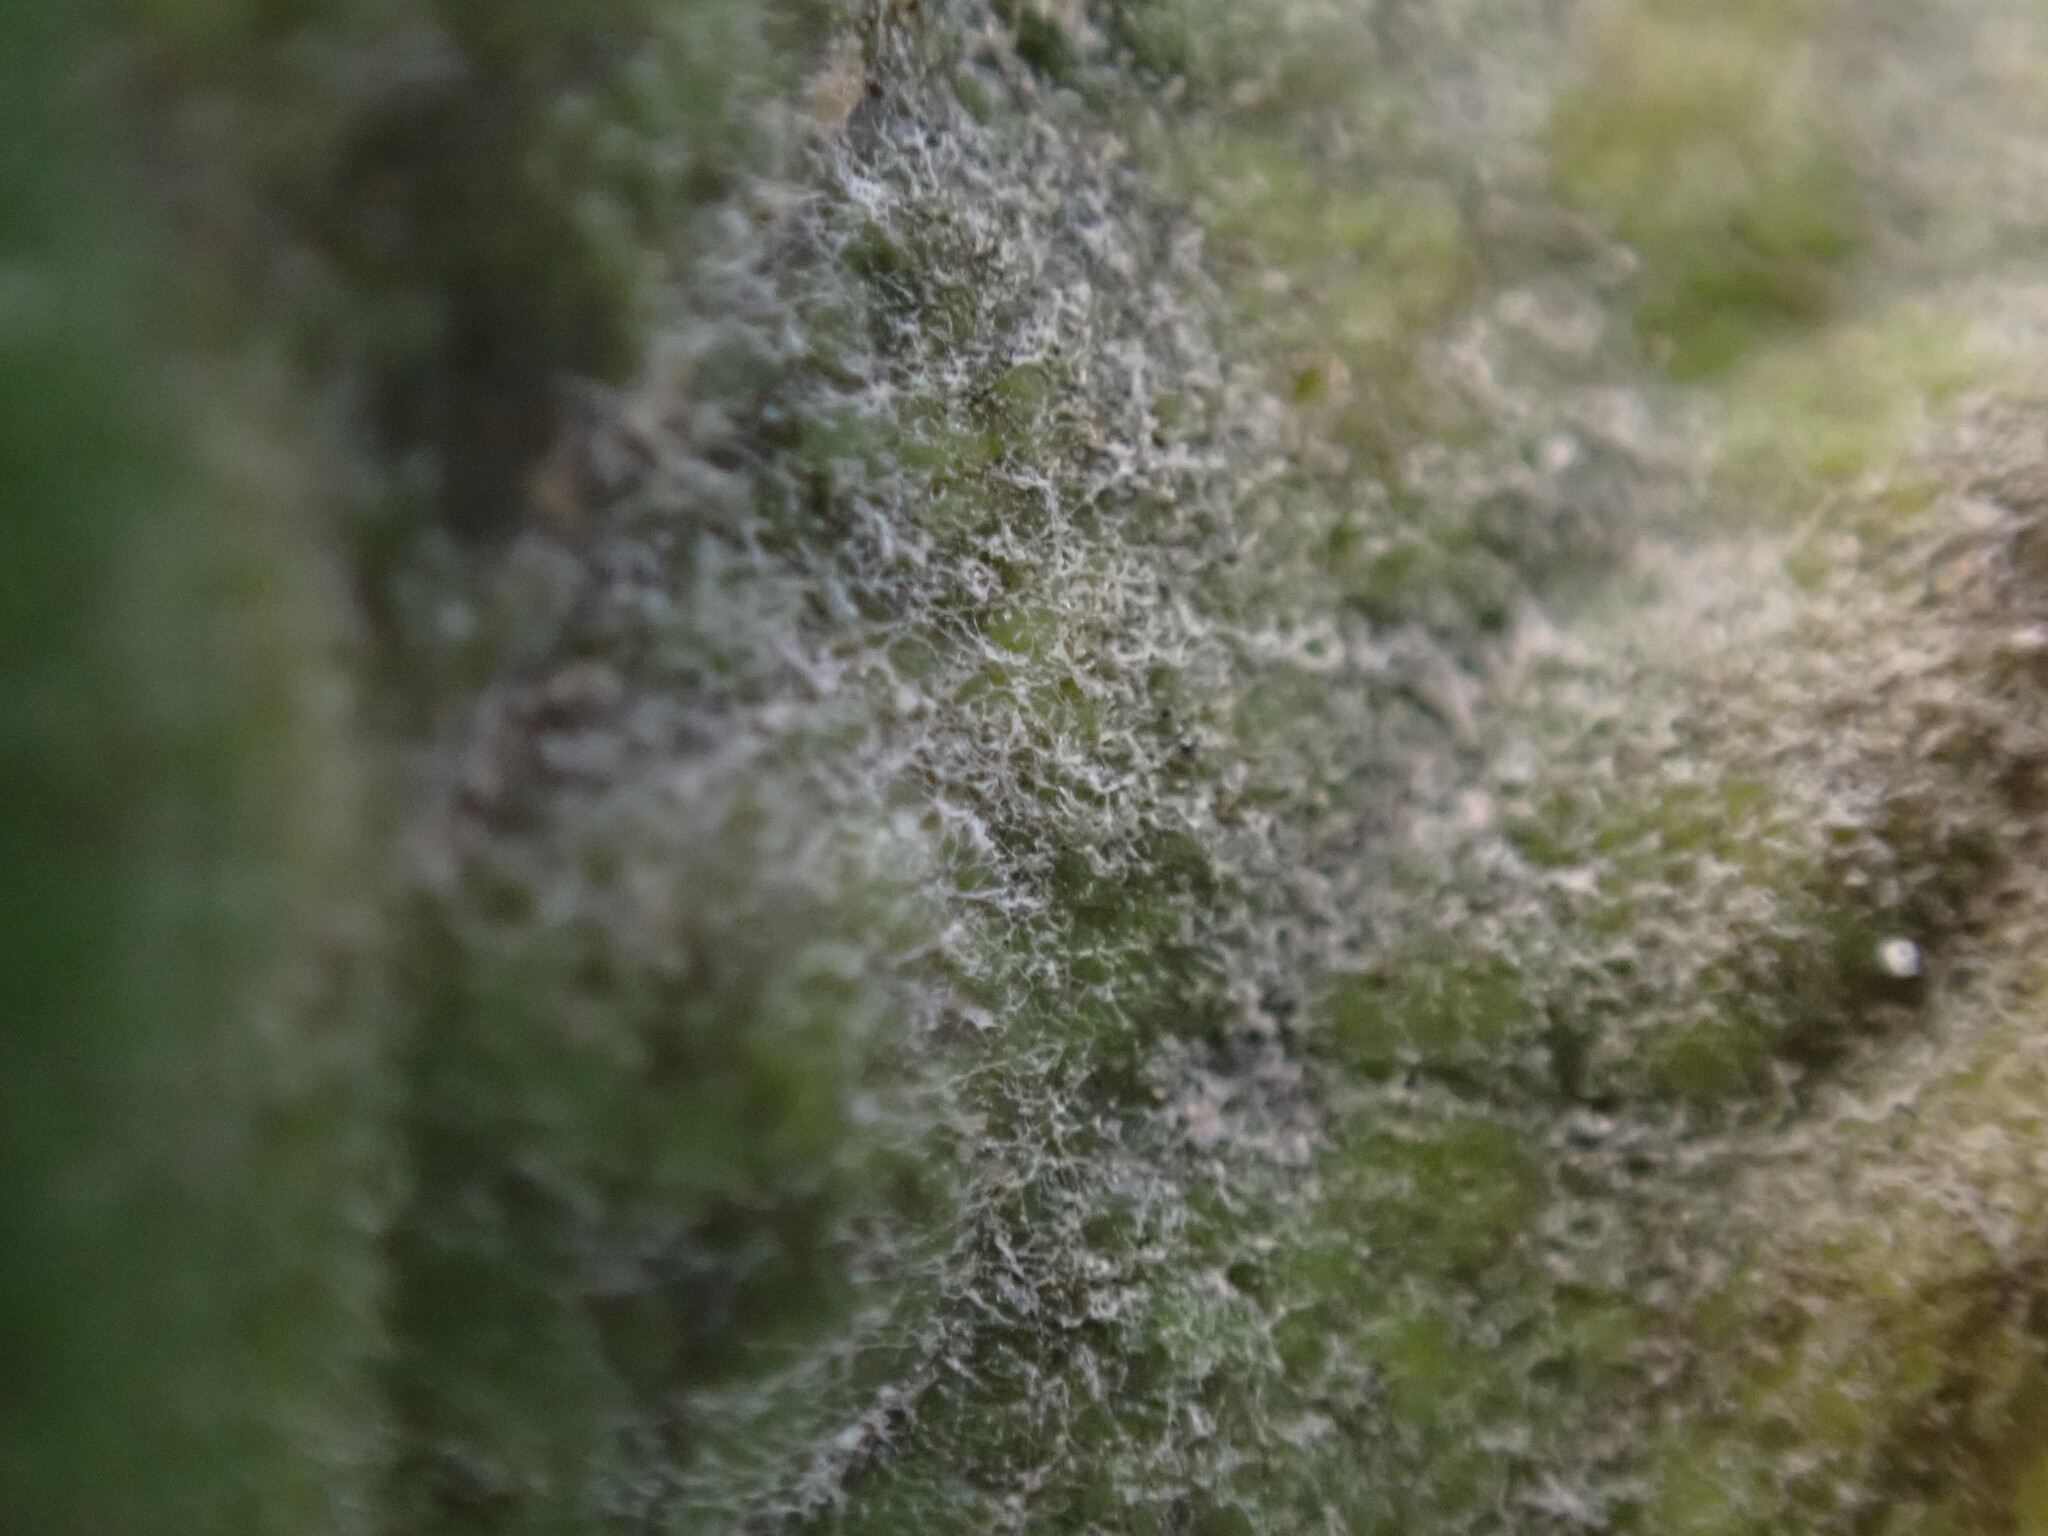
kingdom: Fungi
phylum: Ascomycota
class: Leotiomycetes
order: Helotiales
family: Erysiphaceae
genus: Erysiphe
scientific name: Erysiphe macleayae
